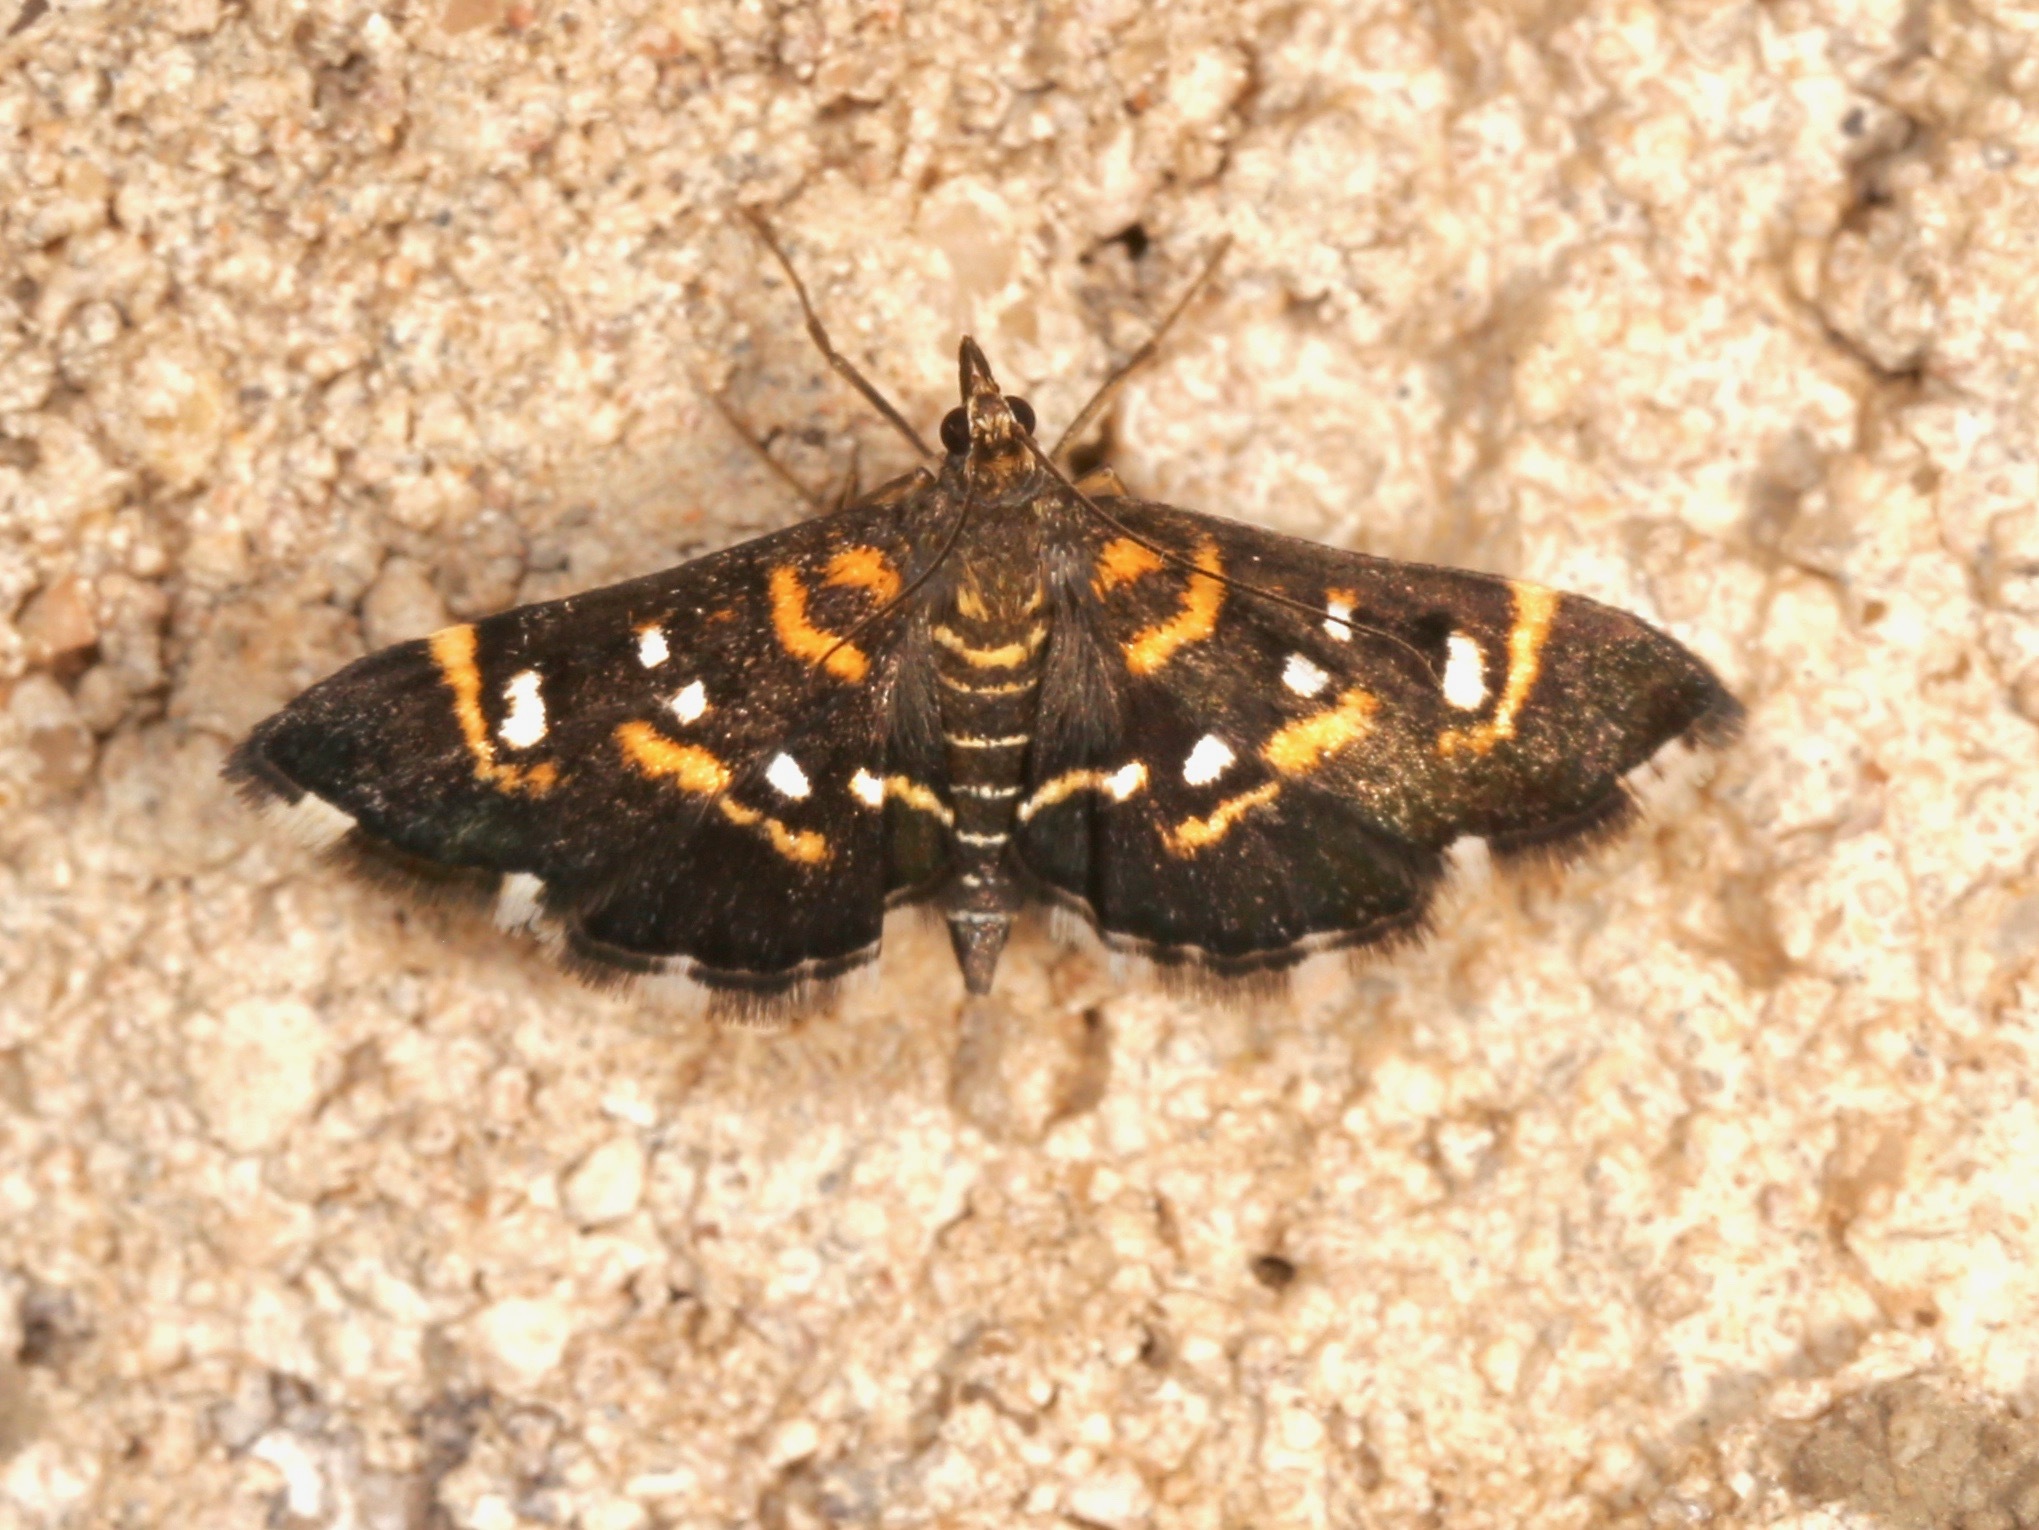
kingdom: Animalia
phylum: Arthropoda
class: Insecta
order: Lepidoptera
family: Crambidae
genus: Diathrausta
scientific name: Diathrausta harlequinalis
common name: Harlequin webworm moth
